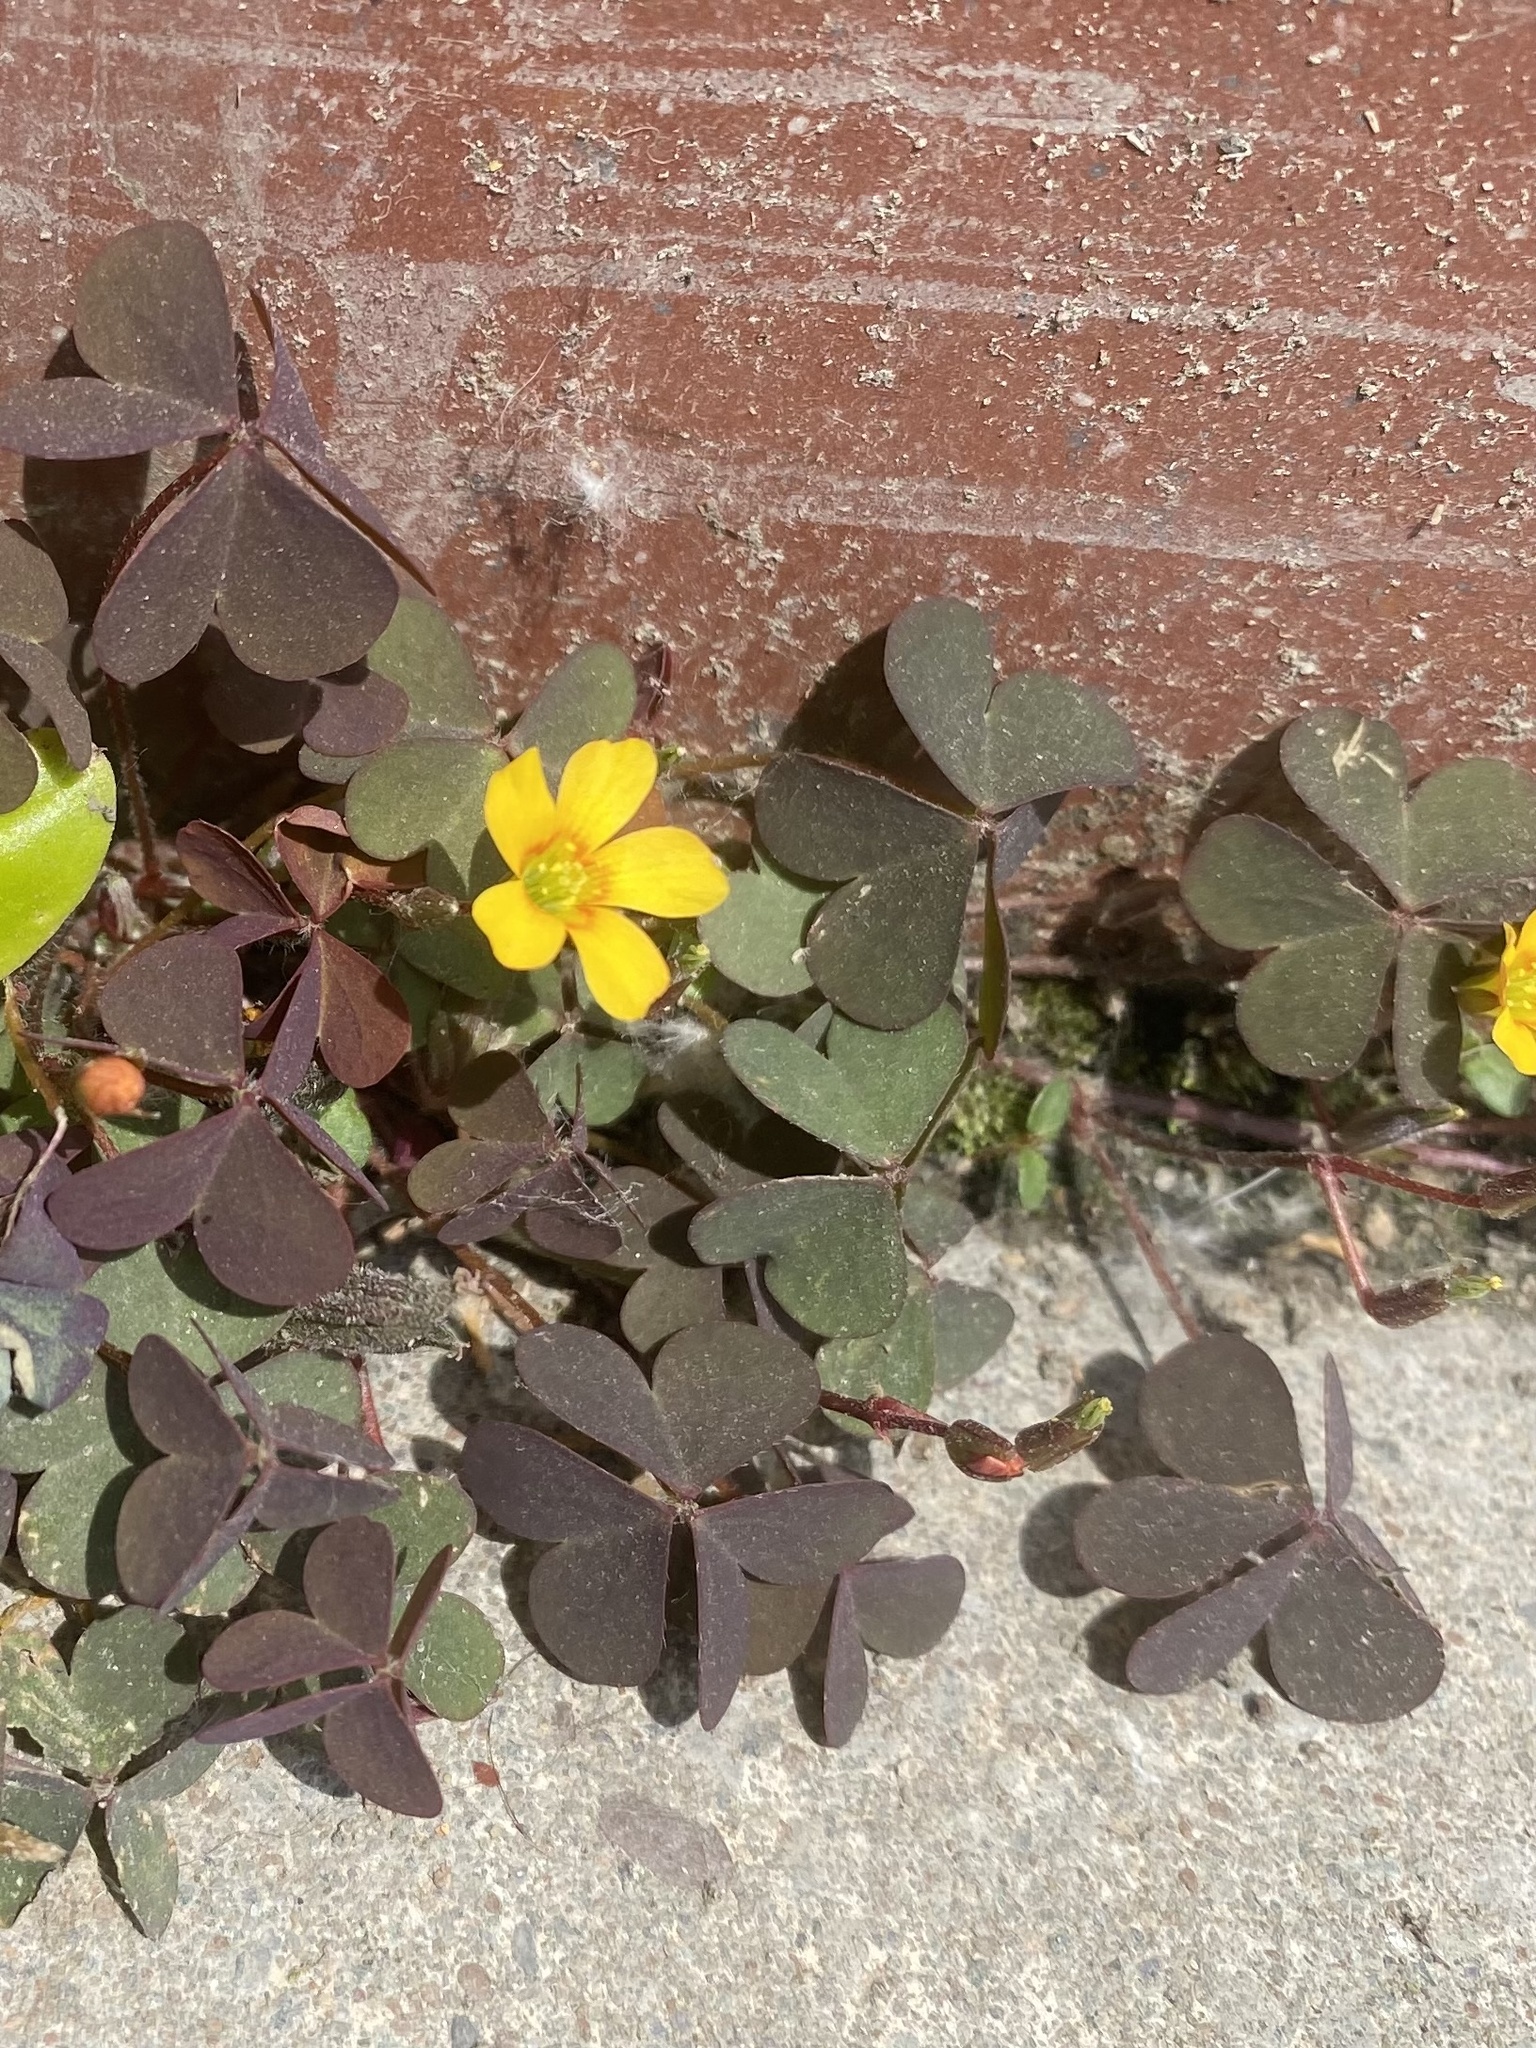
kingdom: Plantae
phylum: Tracheophyta
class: Magnoliopsida
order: Oxalidales
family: Oxalidaceae
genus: Oxalis
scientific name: Oxalis corniculata
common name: Procumbent yellow-sorrel
